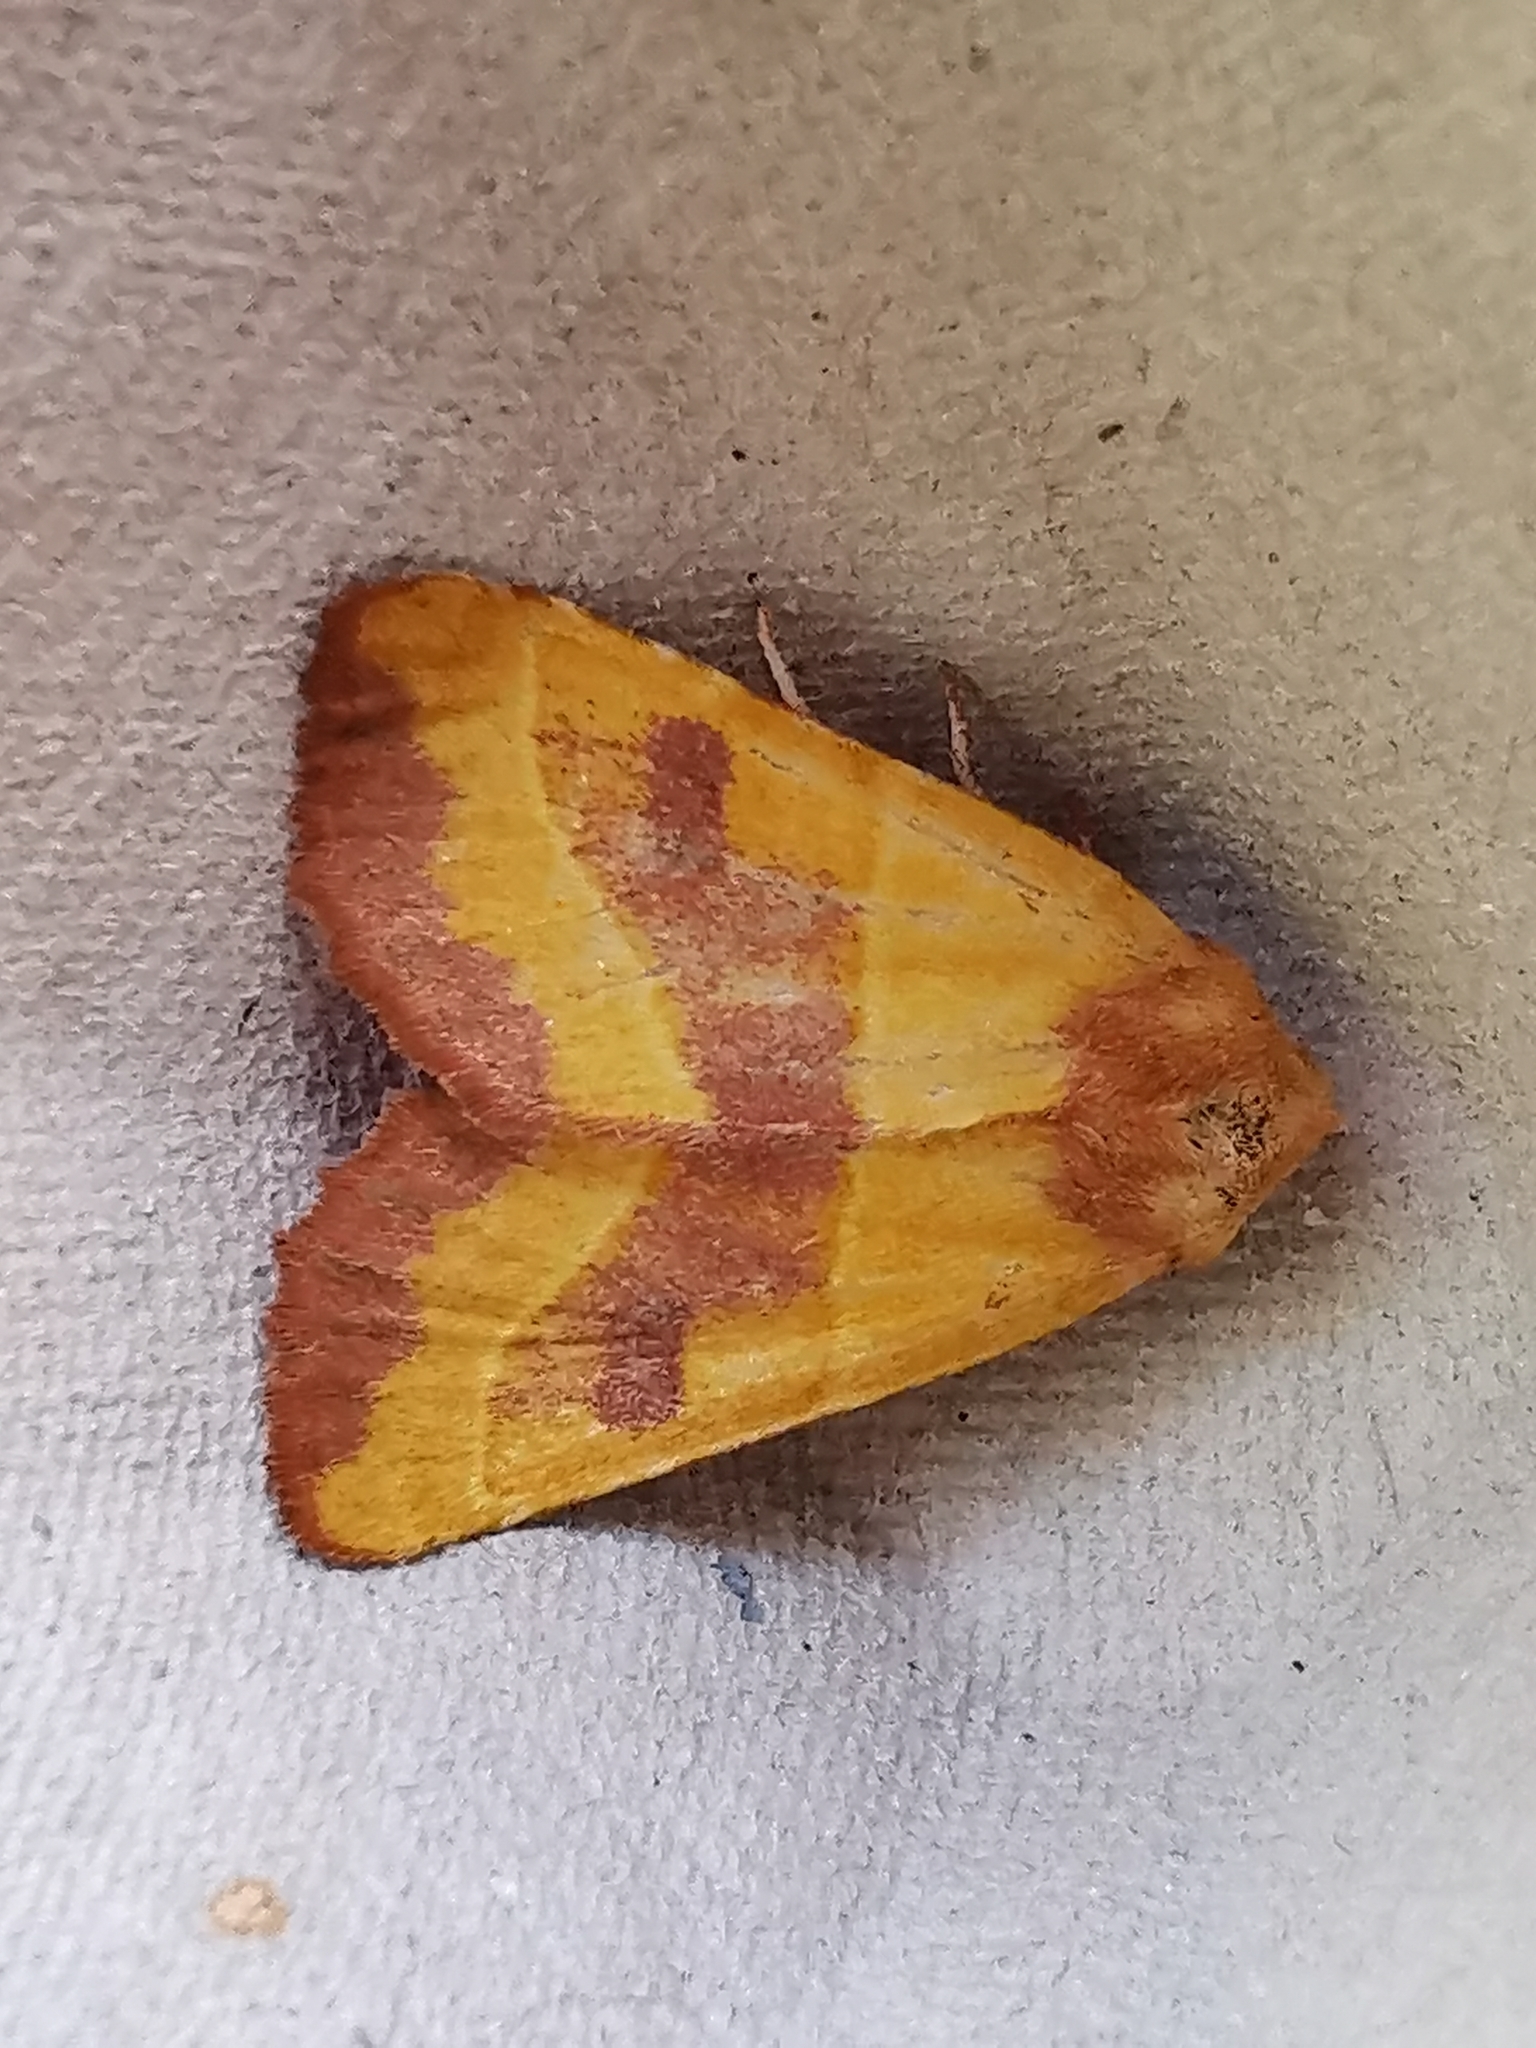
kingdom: Animalia
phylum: Arthropoda
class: Insecta
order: Lepidoptera
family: Noctuidae
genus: Atethmia
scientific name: Atethmia centrago
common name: Centre-barred sallow
